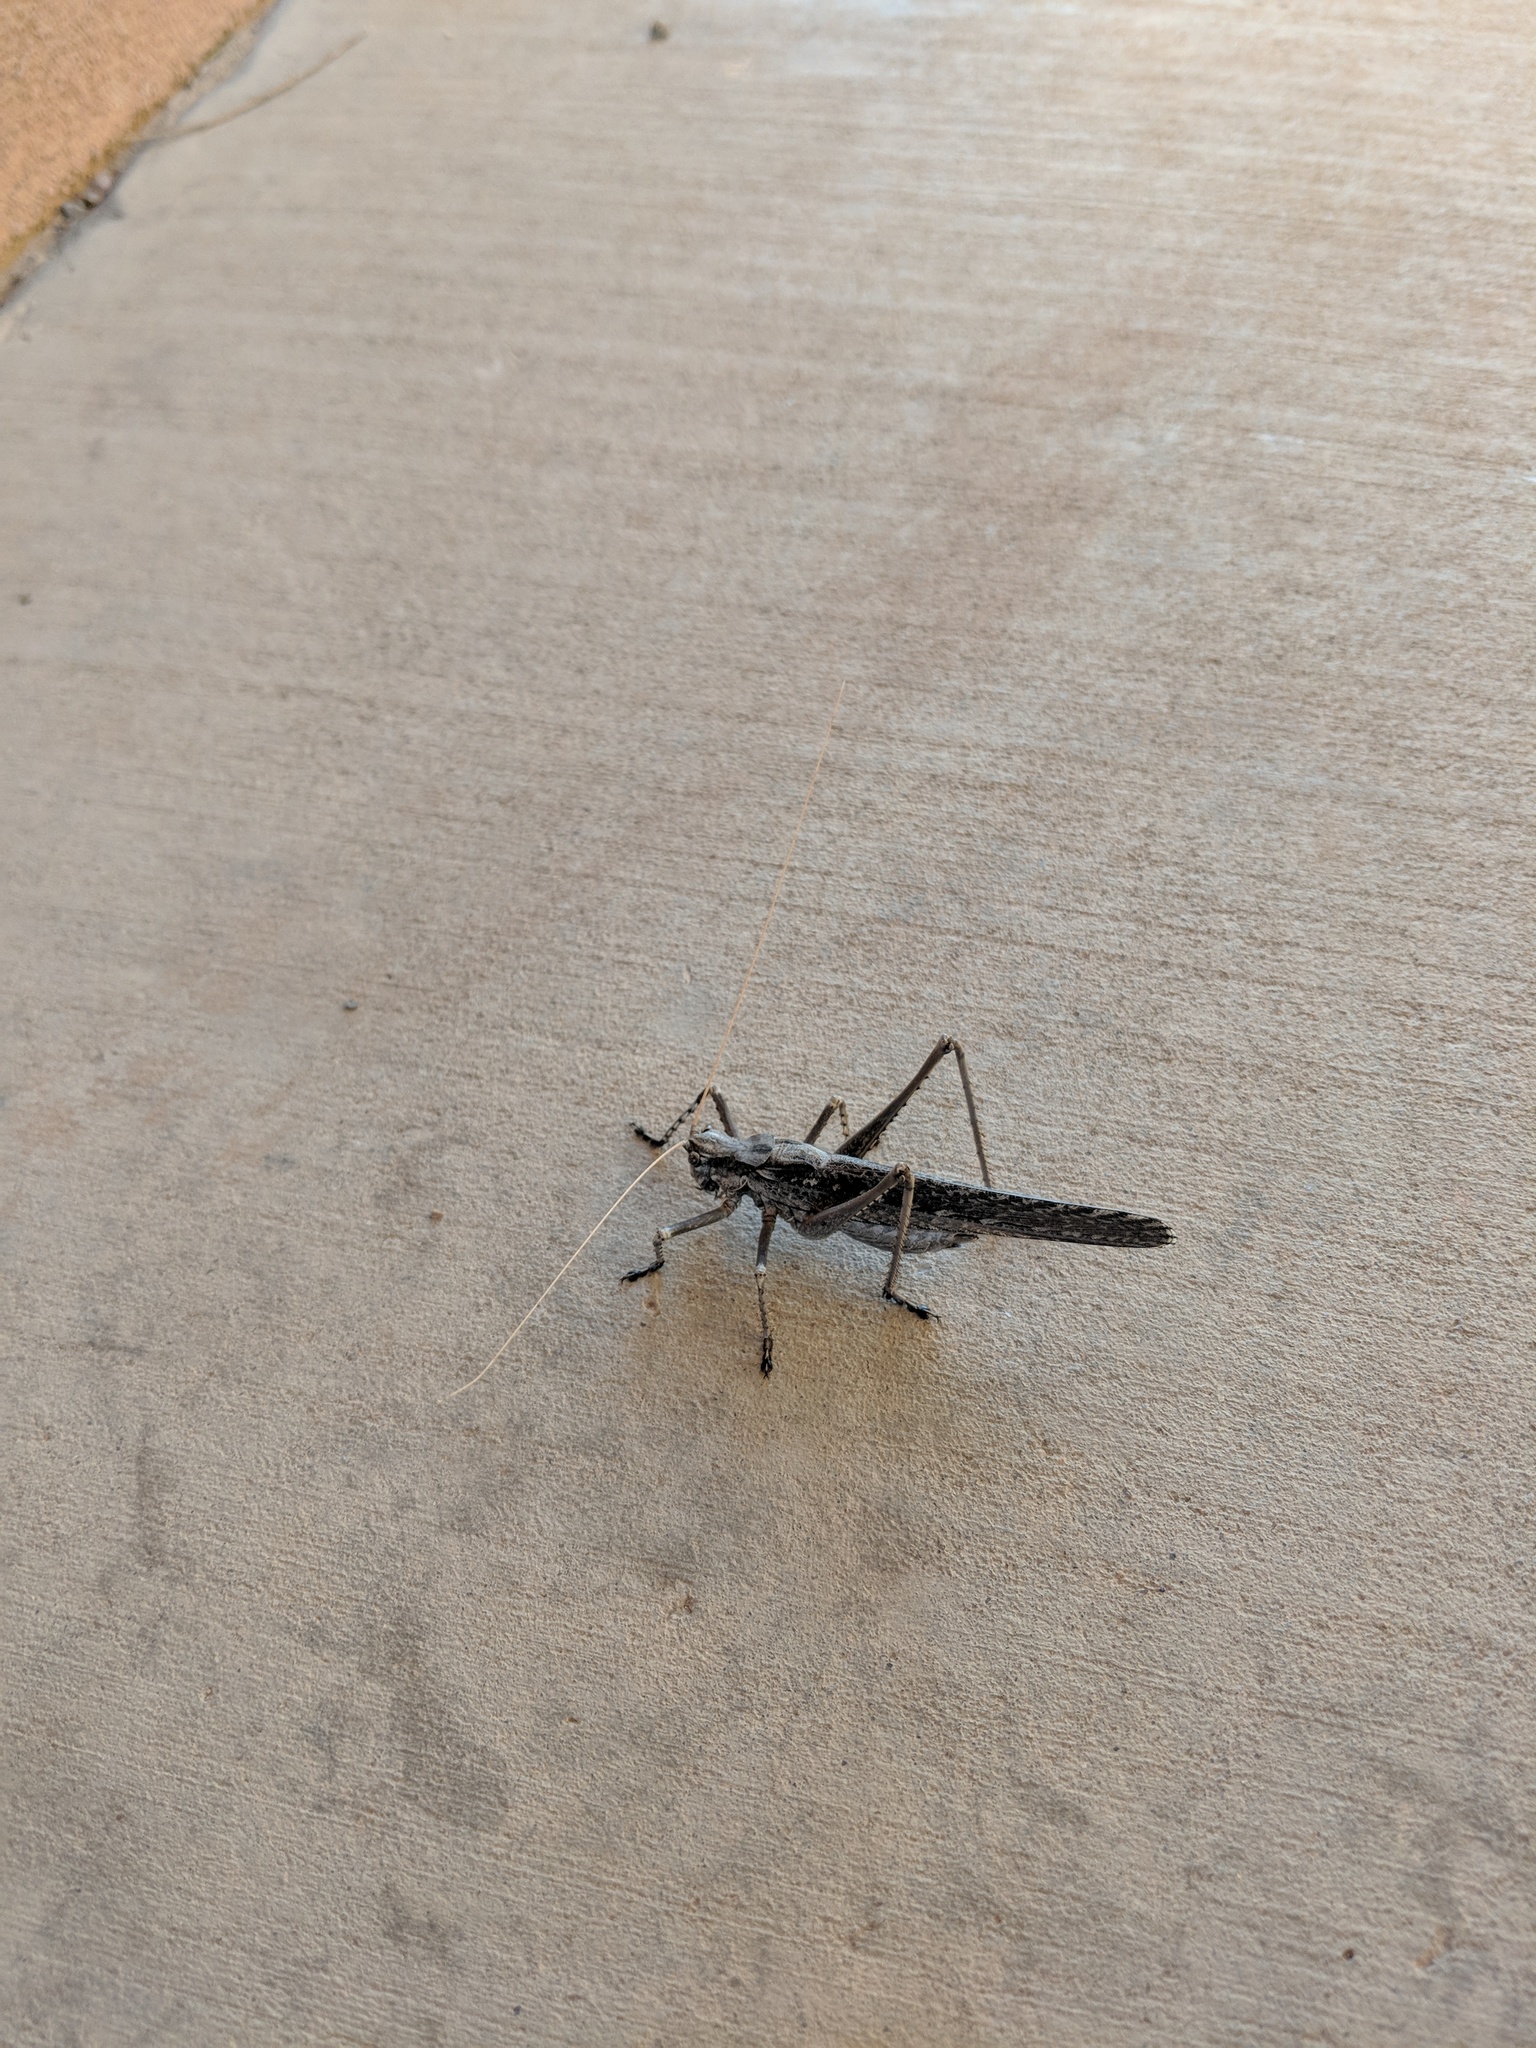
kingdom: Animalia
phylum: Arthropoda
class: Insecta
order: Orthoptera
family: Tettigoniidae
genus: Capnobotes
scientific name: Capnobotes fuliginosus
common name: Sooty longwing
